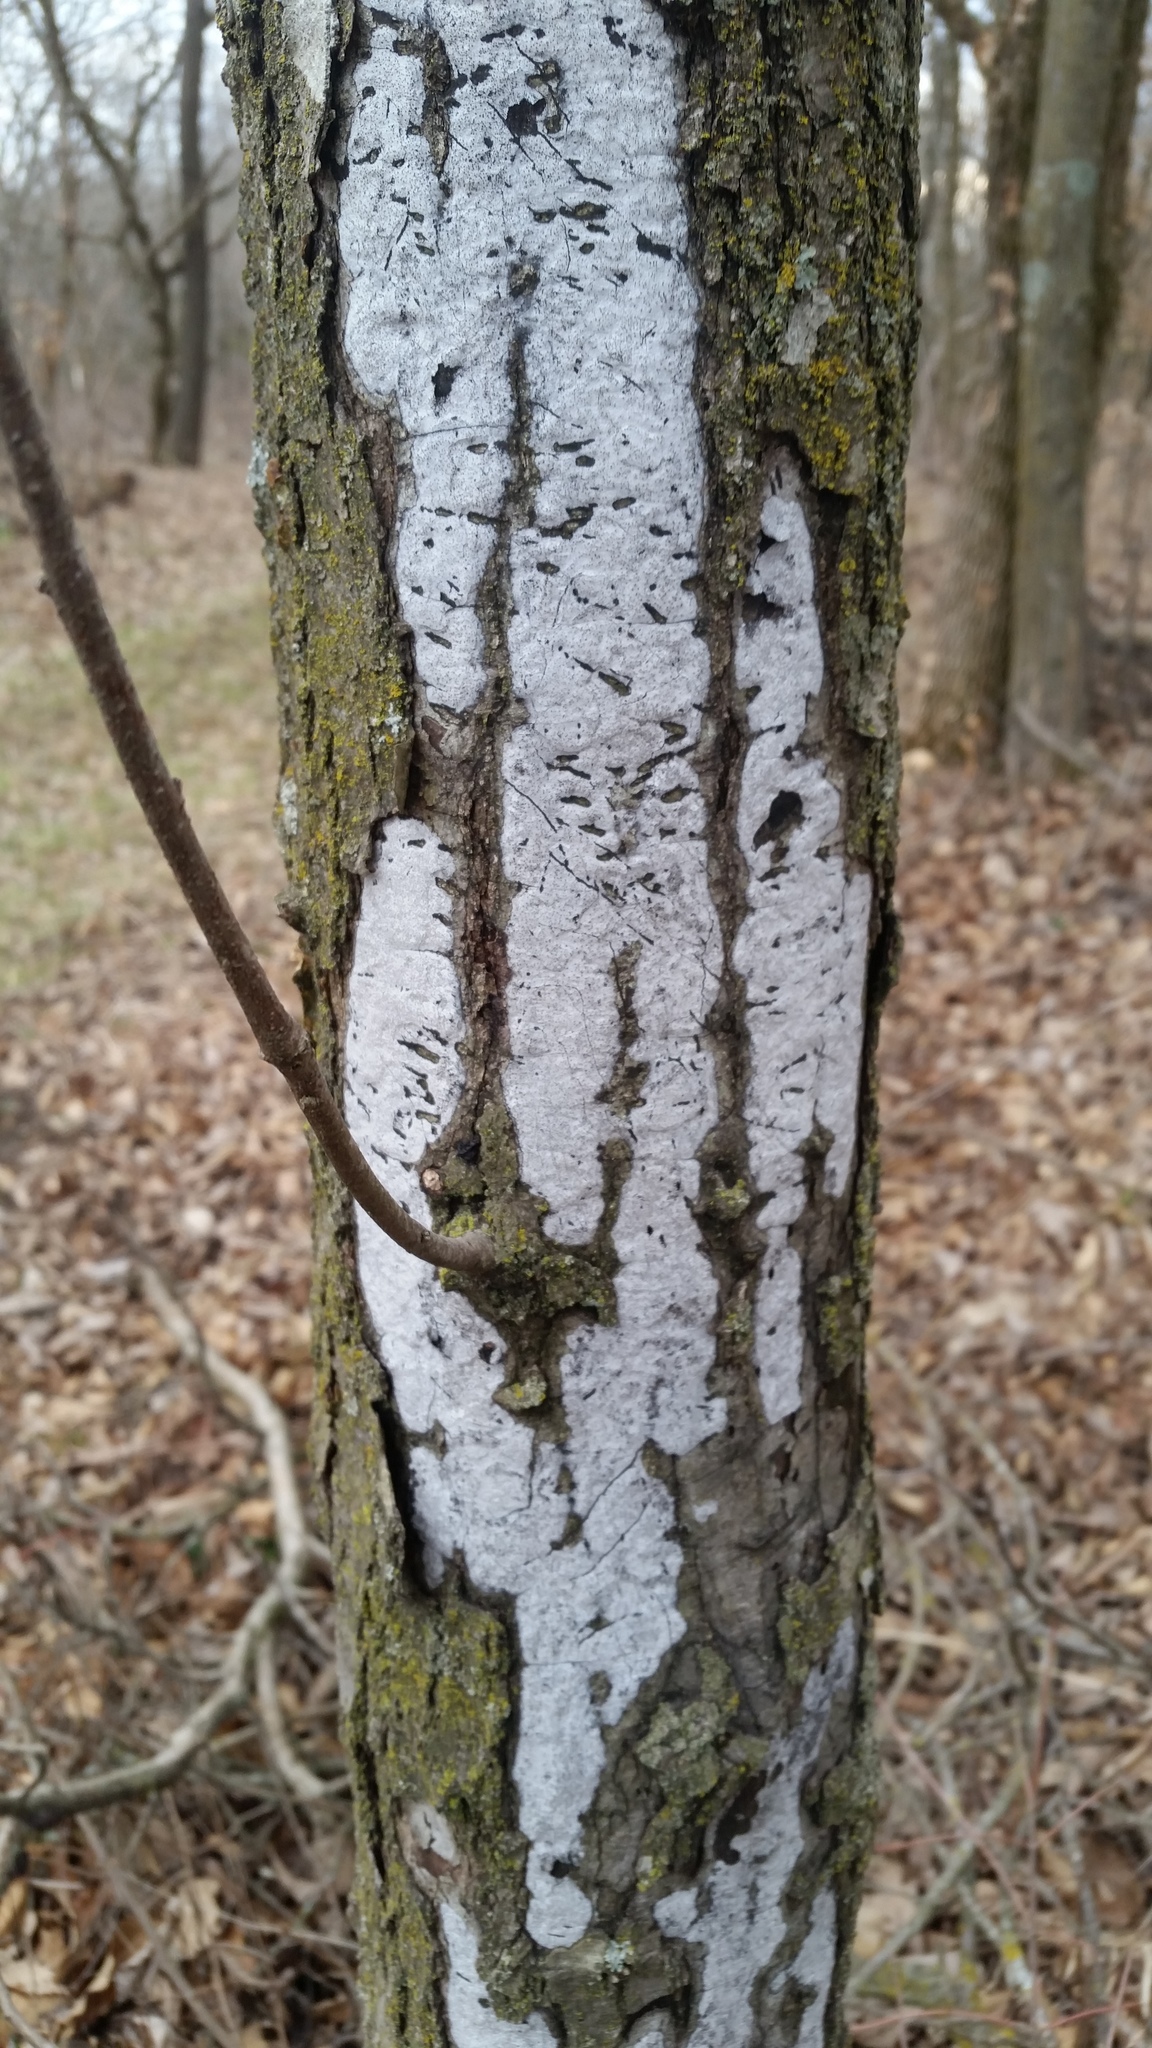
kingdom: Fungi
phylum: Ascomycota
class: Sordariomycetes
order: Xylariales
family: Graphostromataceae
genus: Biscogniauxia
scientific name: Biscogniauxia atropunctata
